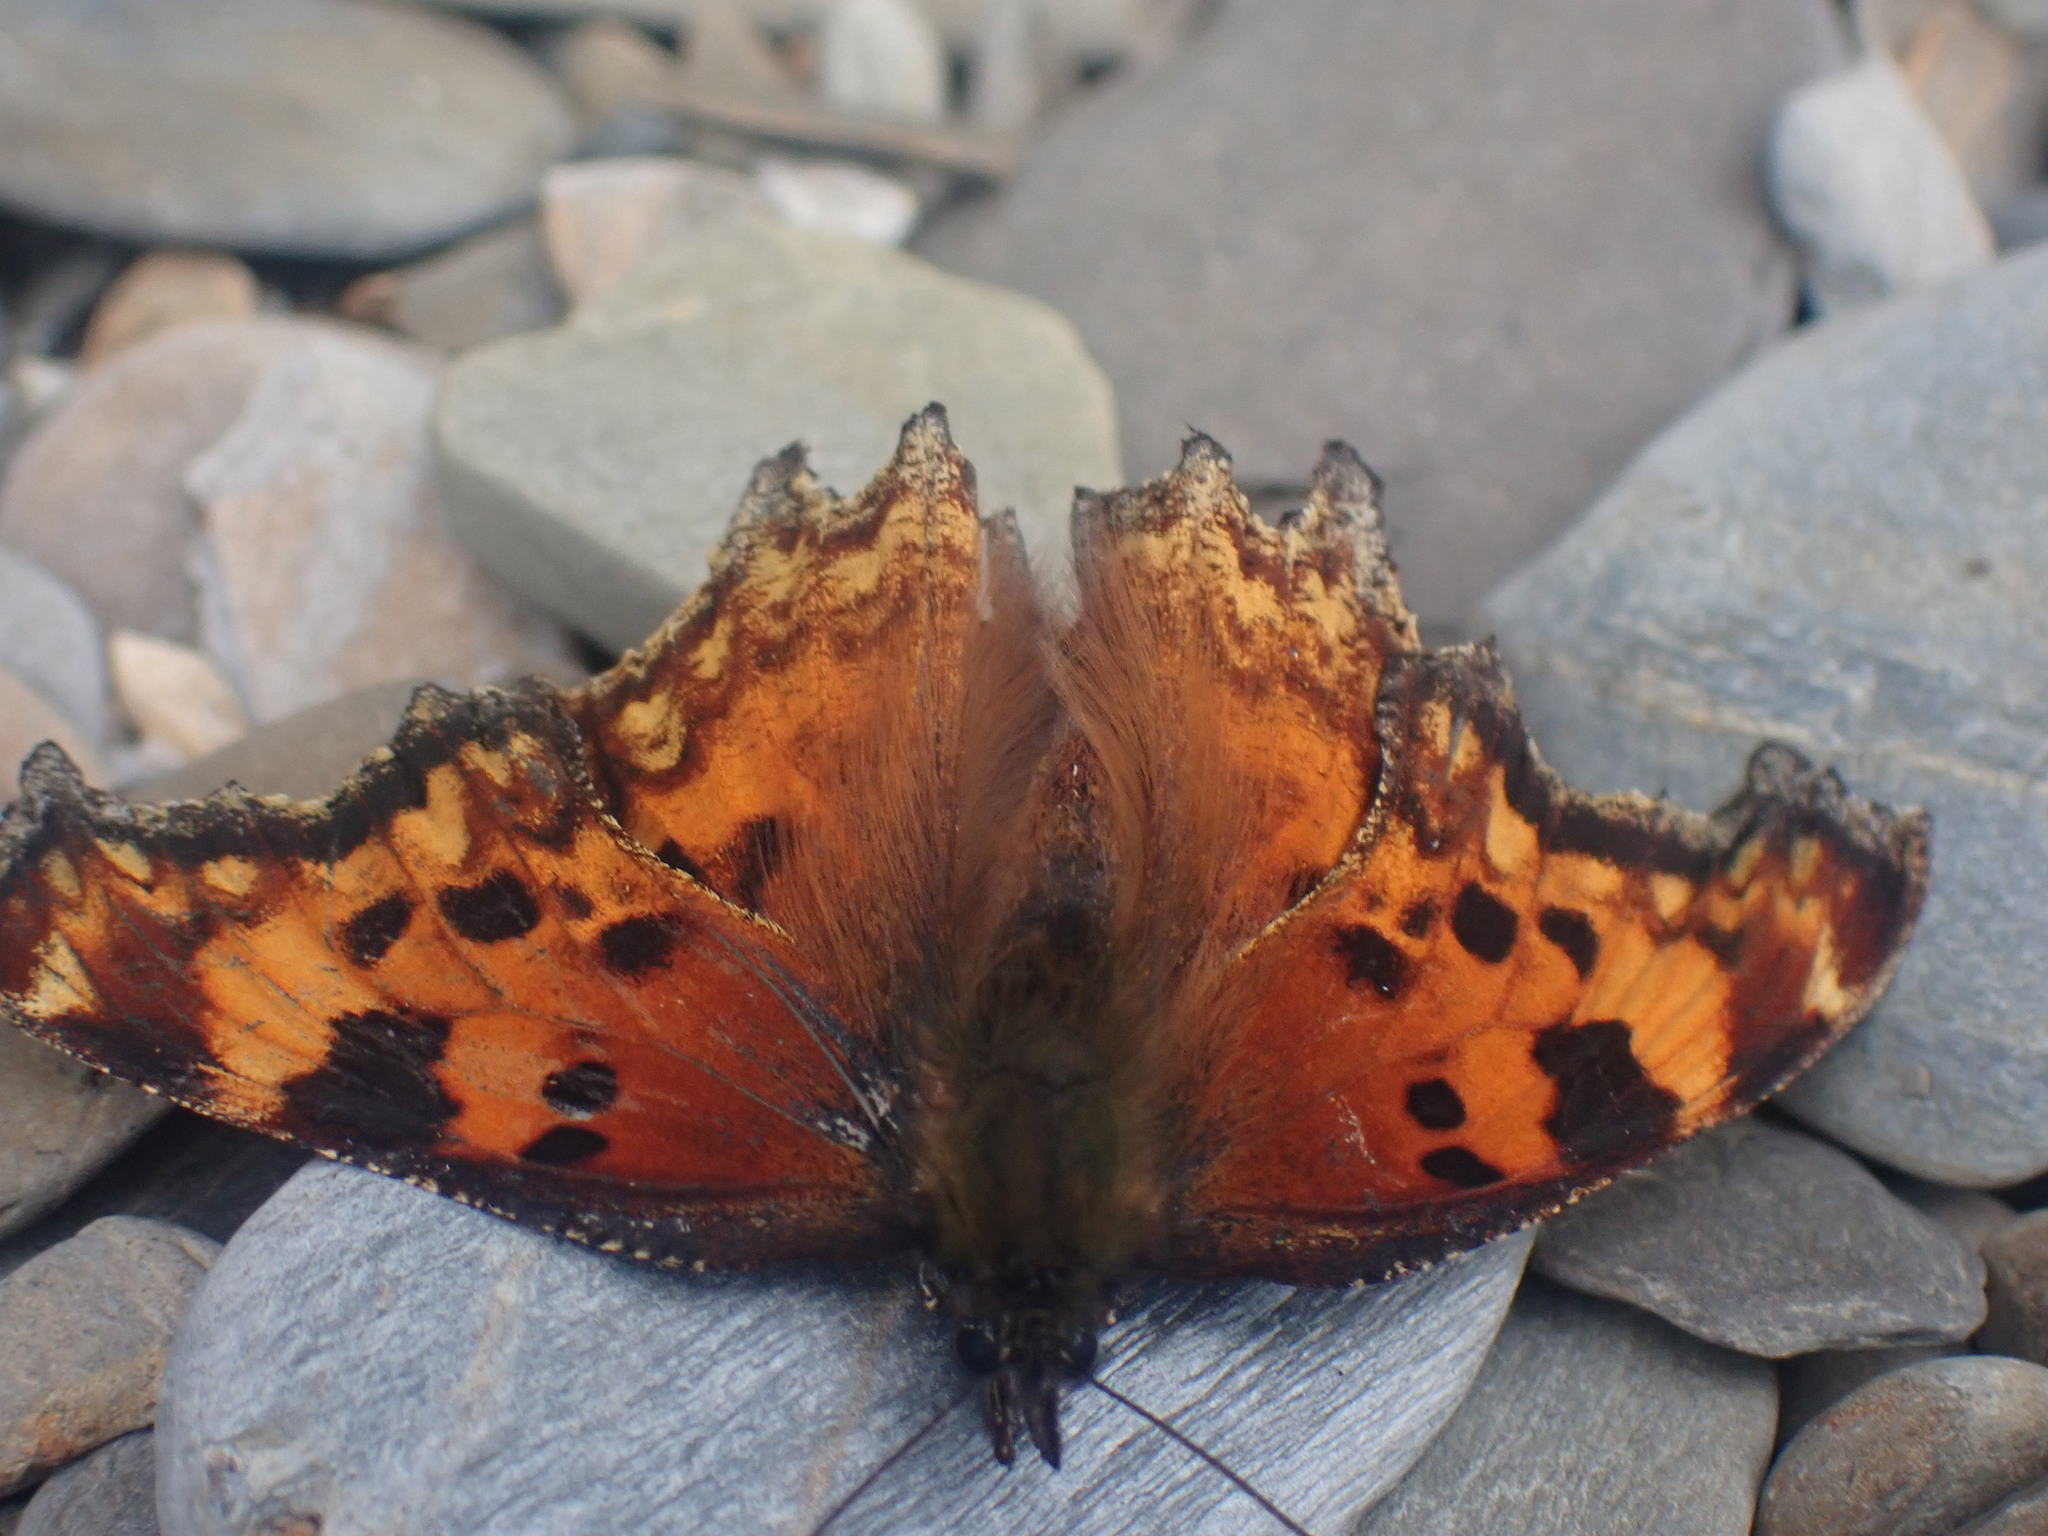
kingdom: Animalia
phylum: Arthropoda
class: Insecta
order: Lepidoptera
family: Nymphalidae
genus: Polygonia
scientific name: Polygonia gracilis
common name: Hoary comma
